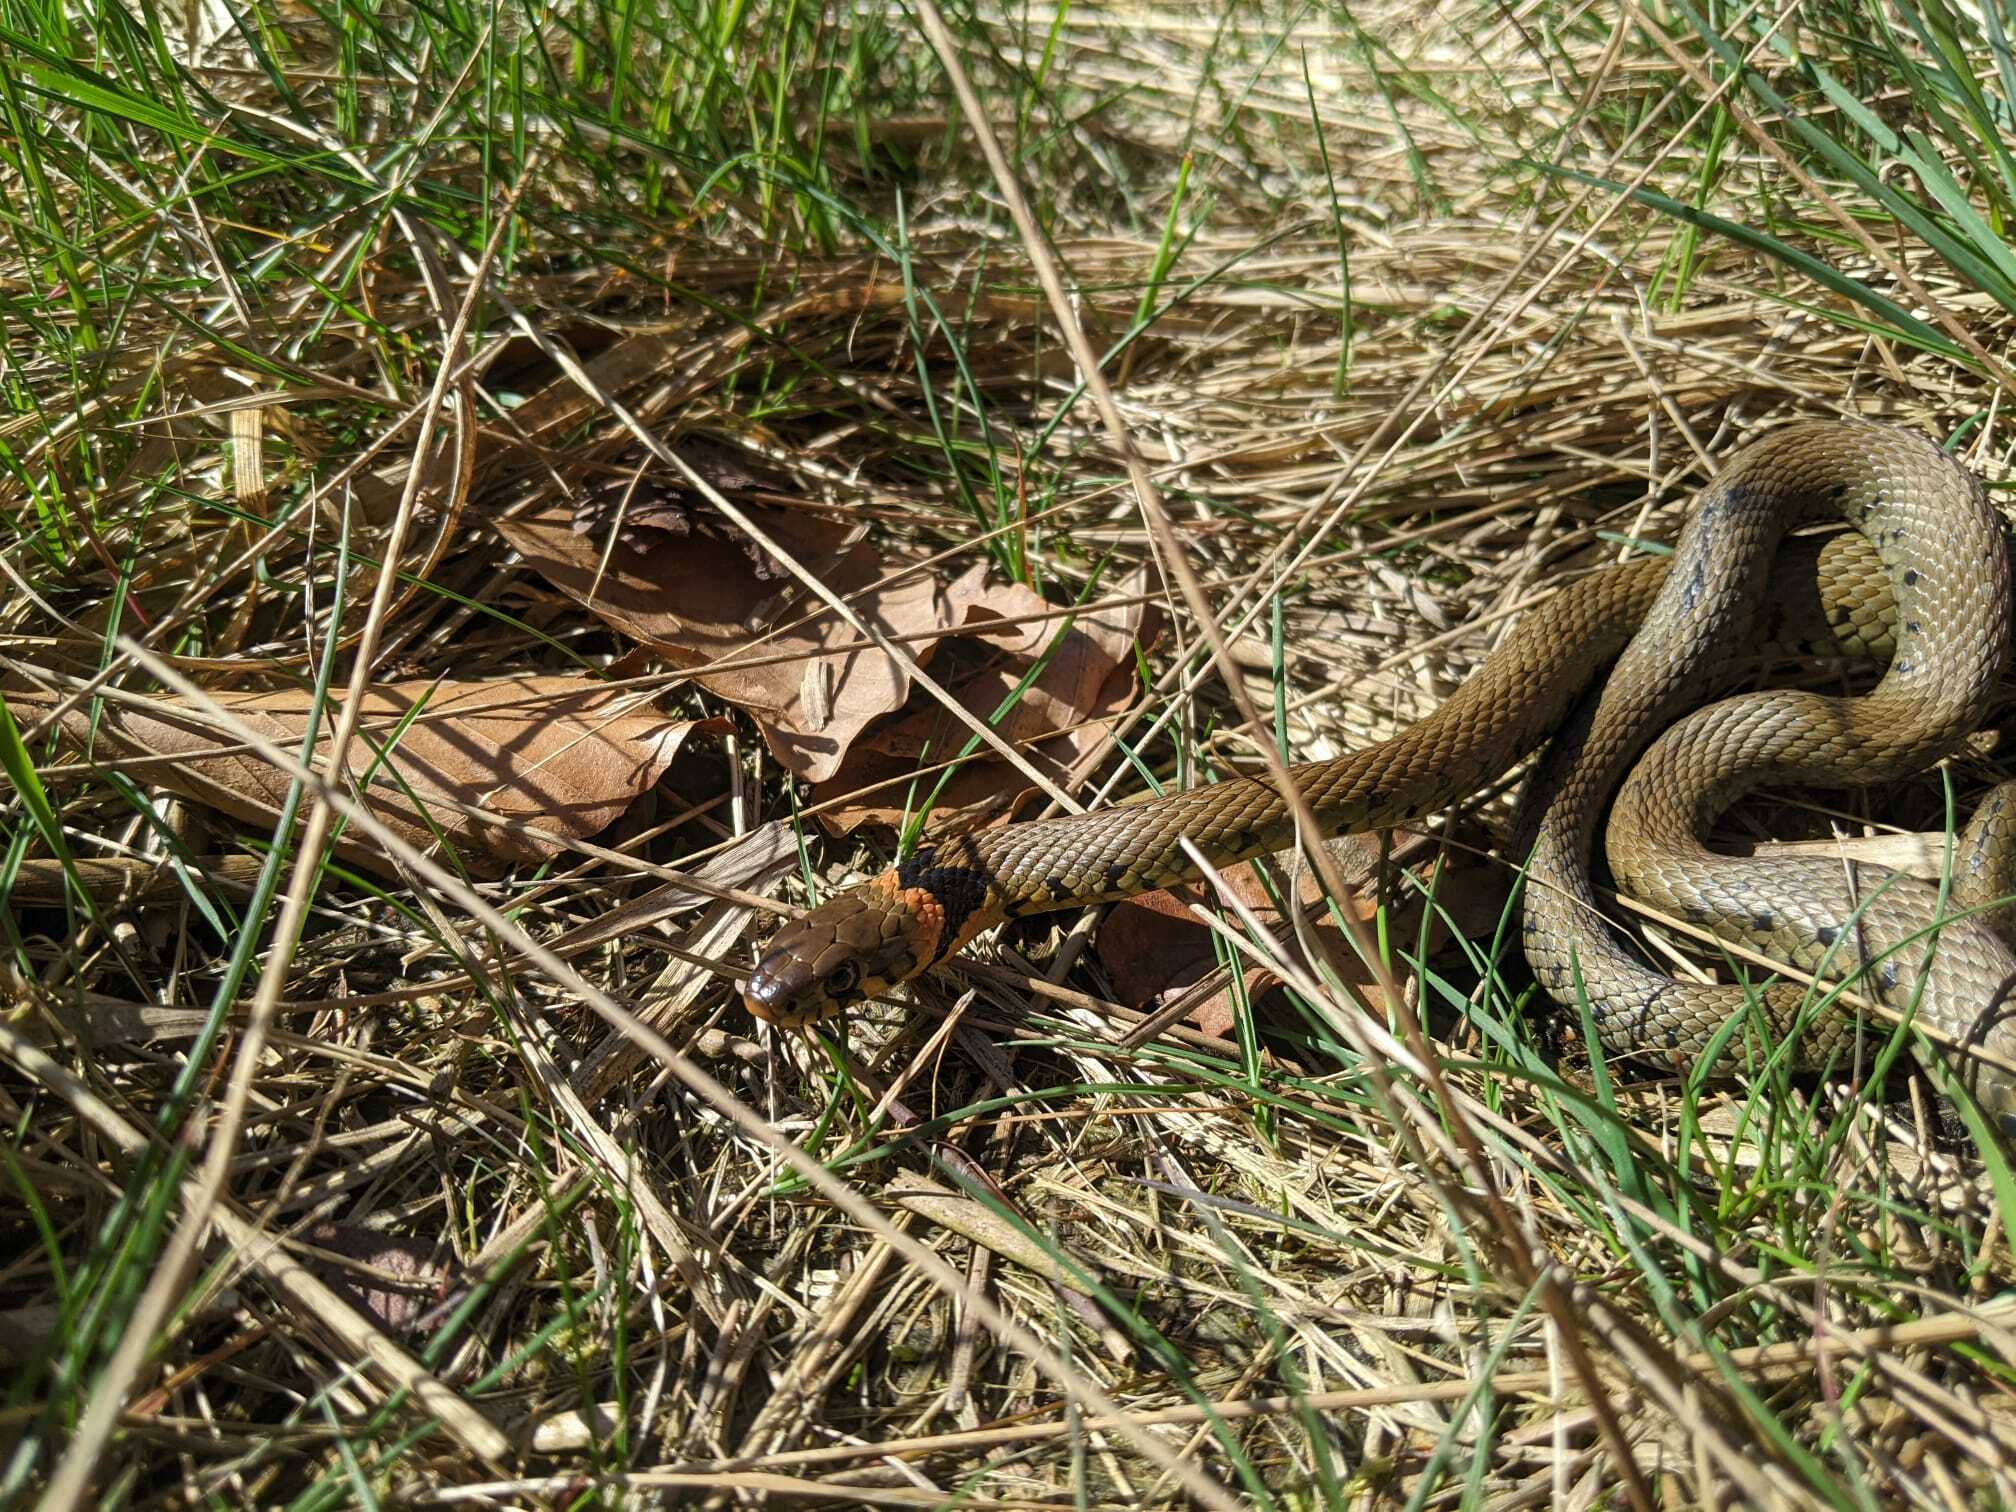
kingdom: Animalia
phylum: Chordata
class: Squamata
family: Colubridae
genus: Natrix
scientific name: Natrix helvetica
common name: Banded grass snake
